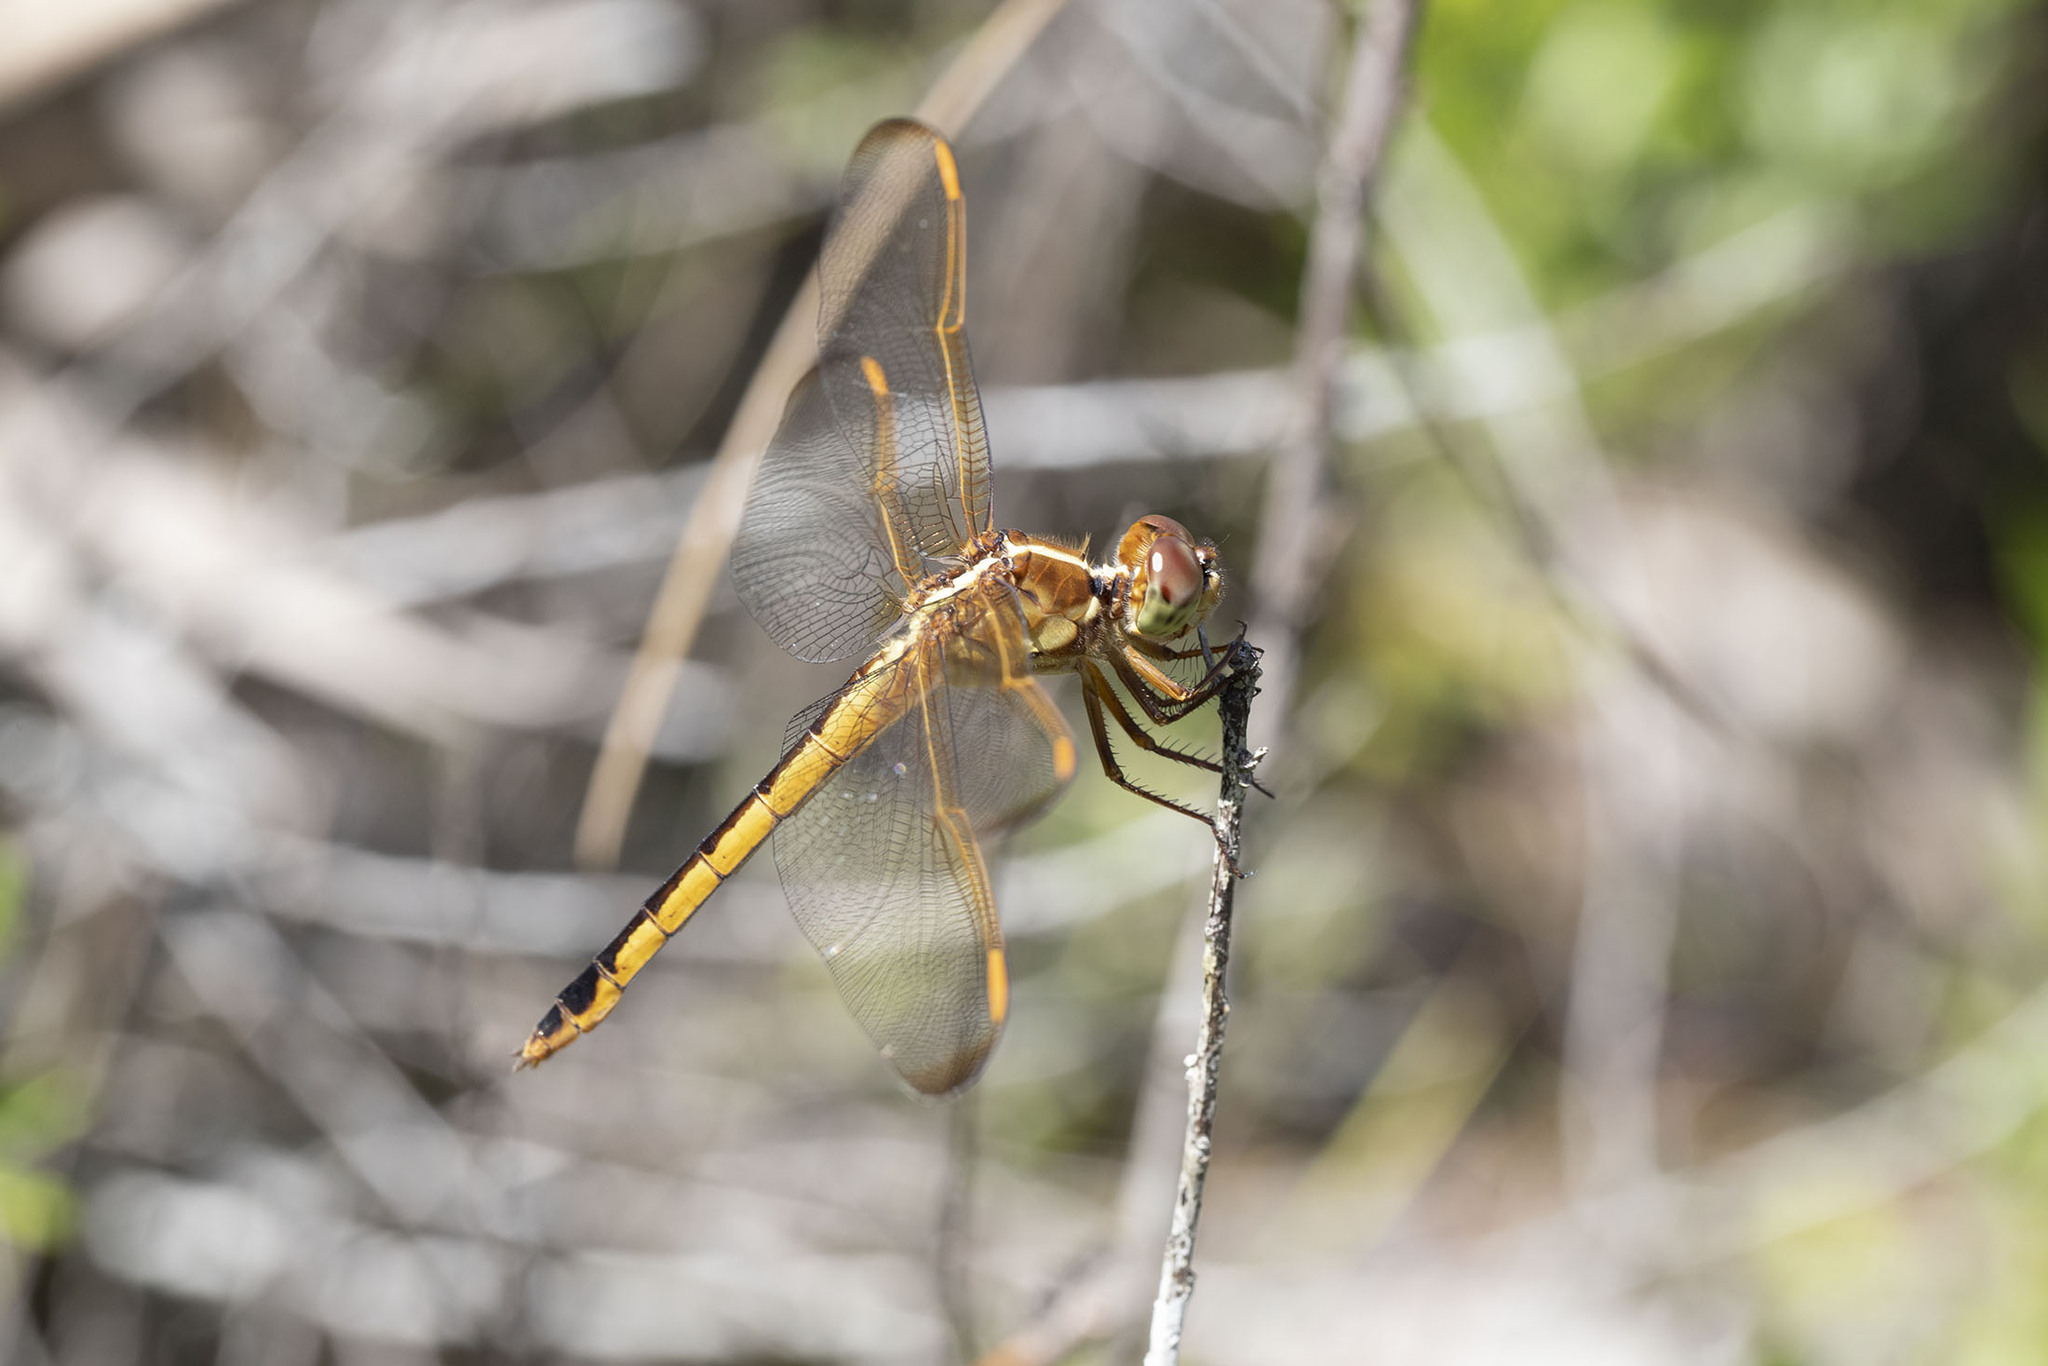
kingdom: Animalia
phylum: Arthropoda
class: Insecta
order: Odonata
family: Libellulidae
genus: Libellula
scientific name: Libellula needhami
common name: Needham's skimmer
